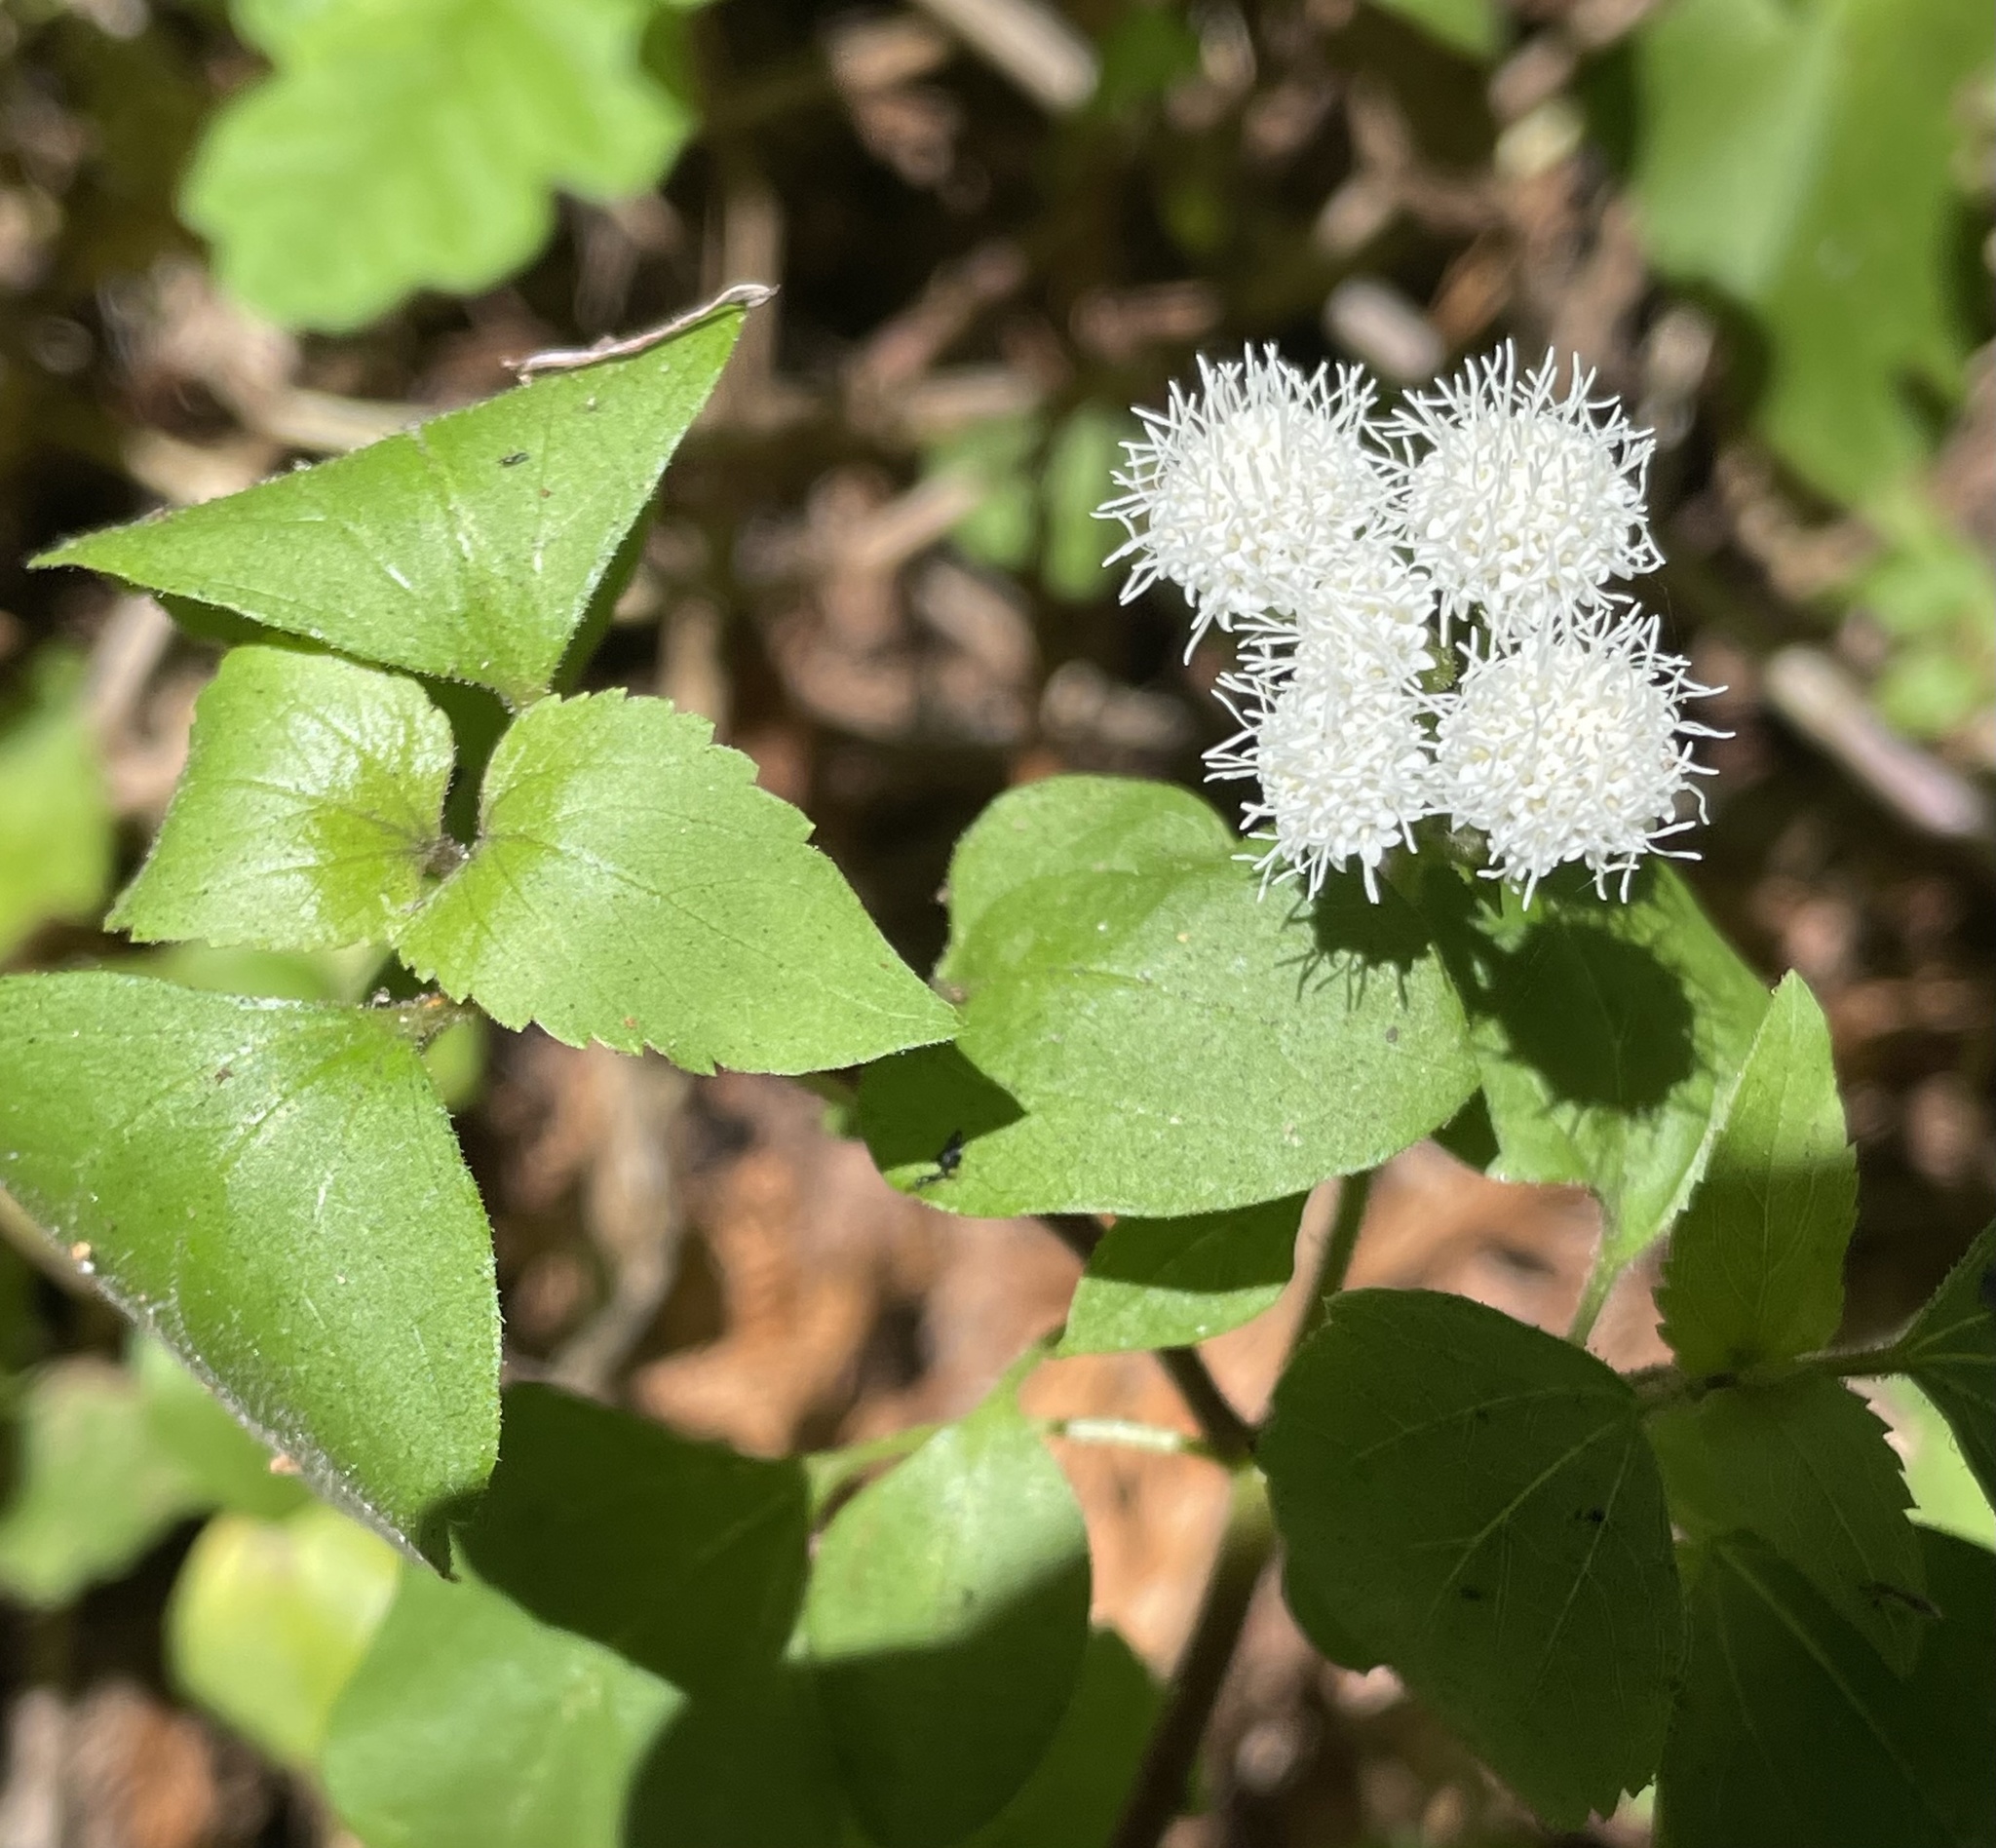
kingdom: Plantae
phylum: Tracheophyta
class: Magnoliopsida
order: Asterales
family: Asteraceae
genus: Ageratina
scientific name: Ageratina adenophora
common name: Sticky snakeroot
